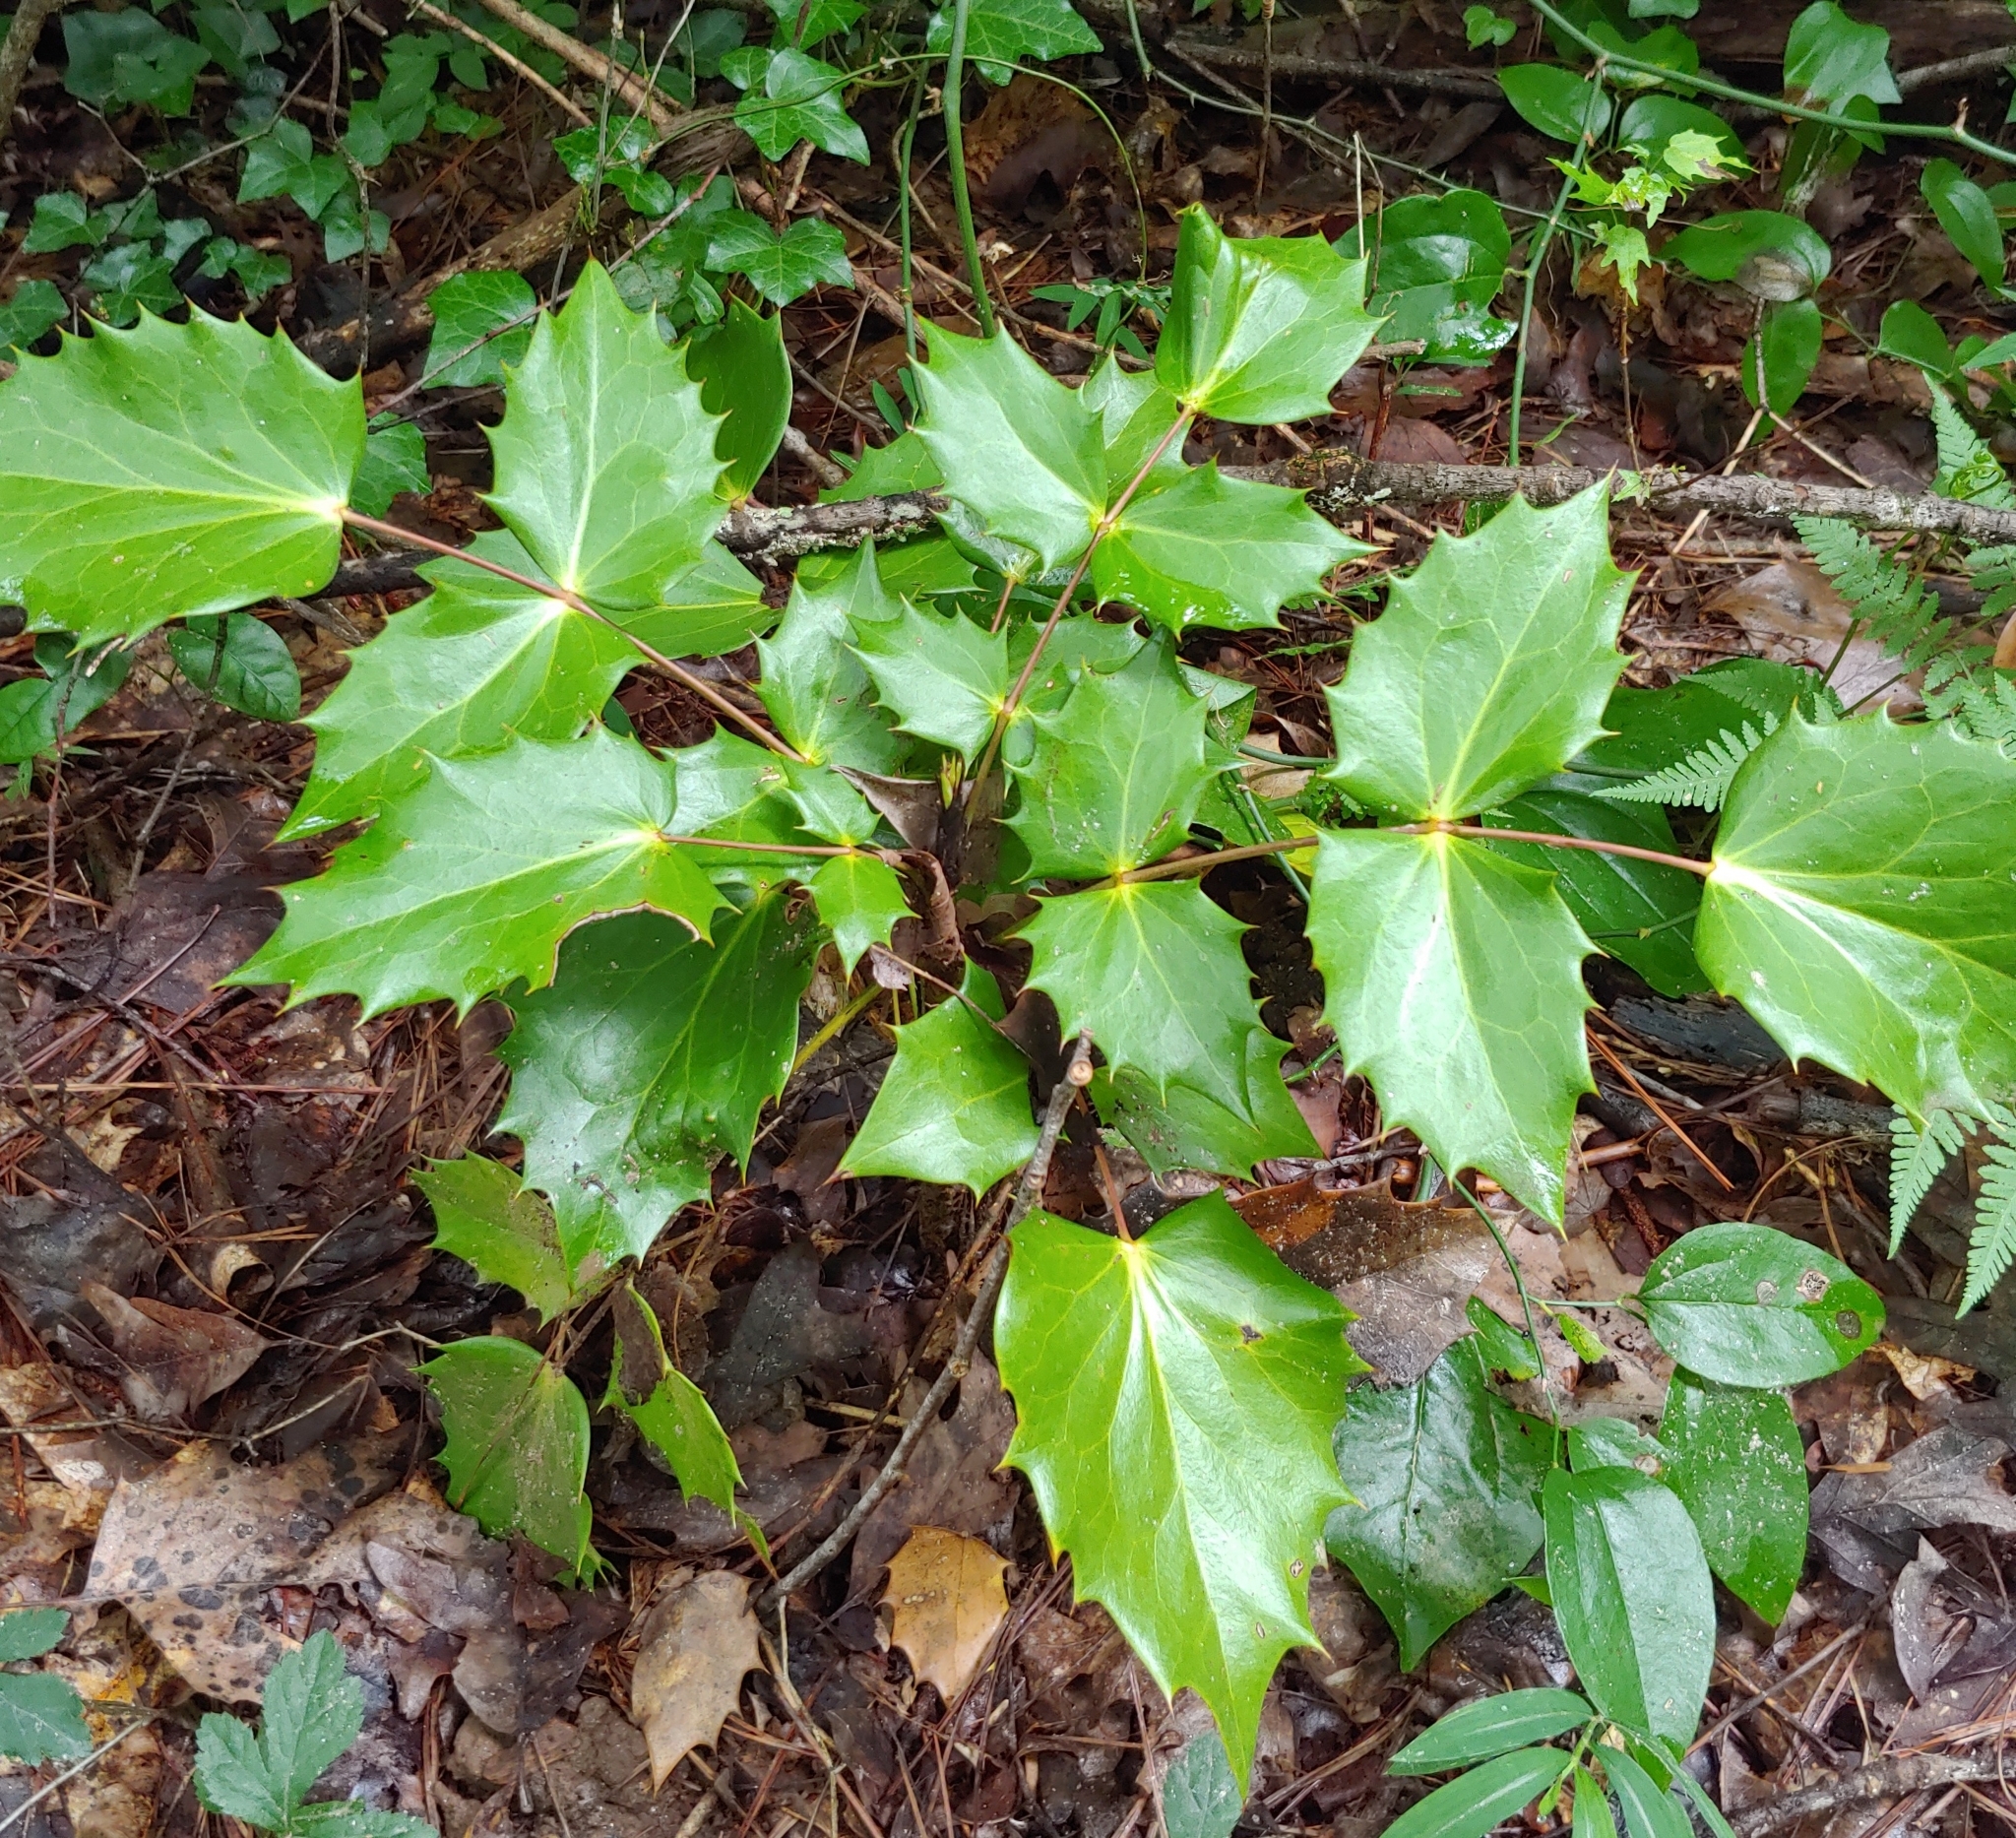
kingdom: Plantae
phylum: Tracheophyta
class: Magnoliopsida
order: Ranunculales
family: Berberidaceae
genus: Mahonia
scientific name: Mahonia bealei
